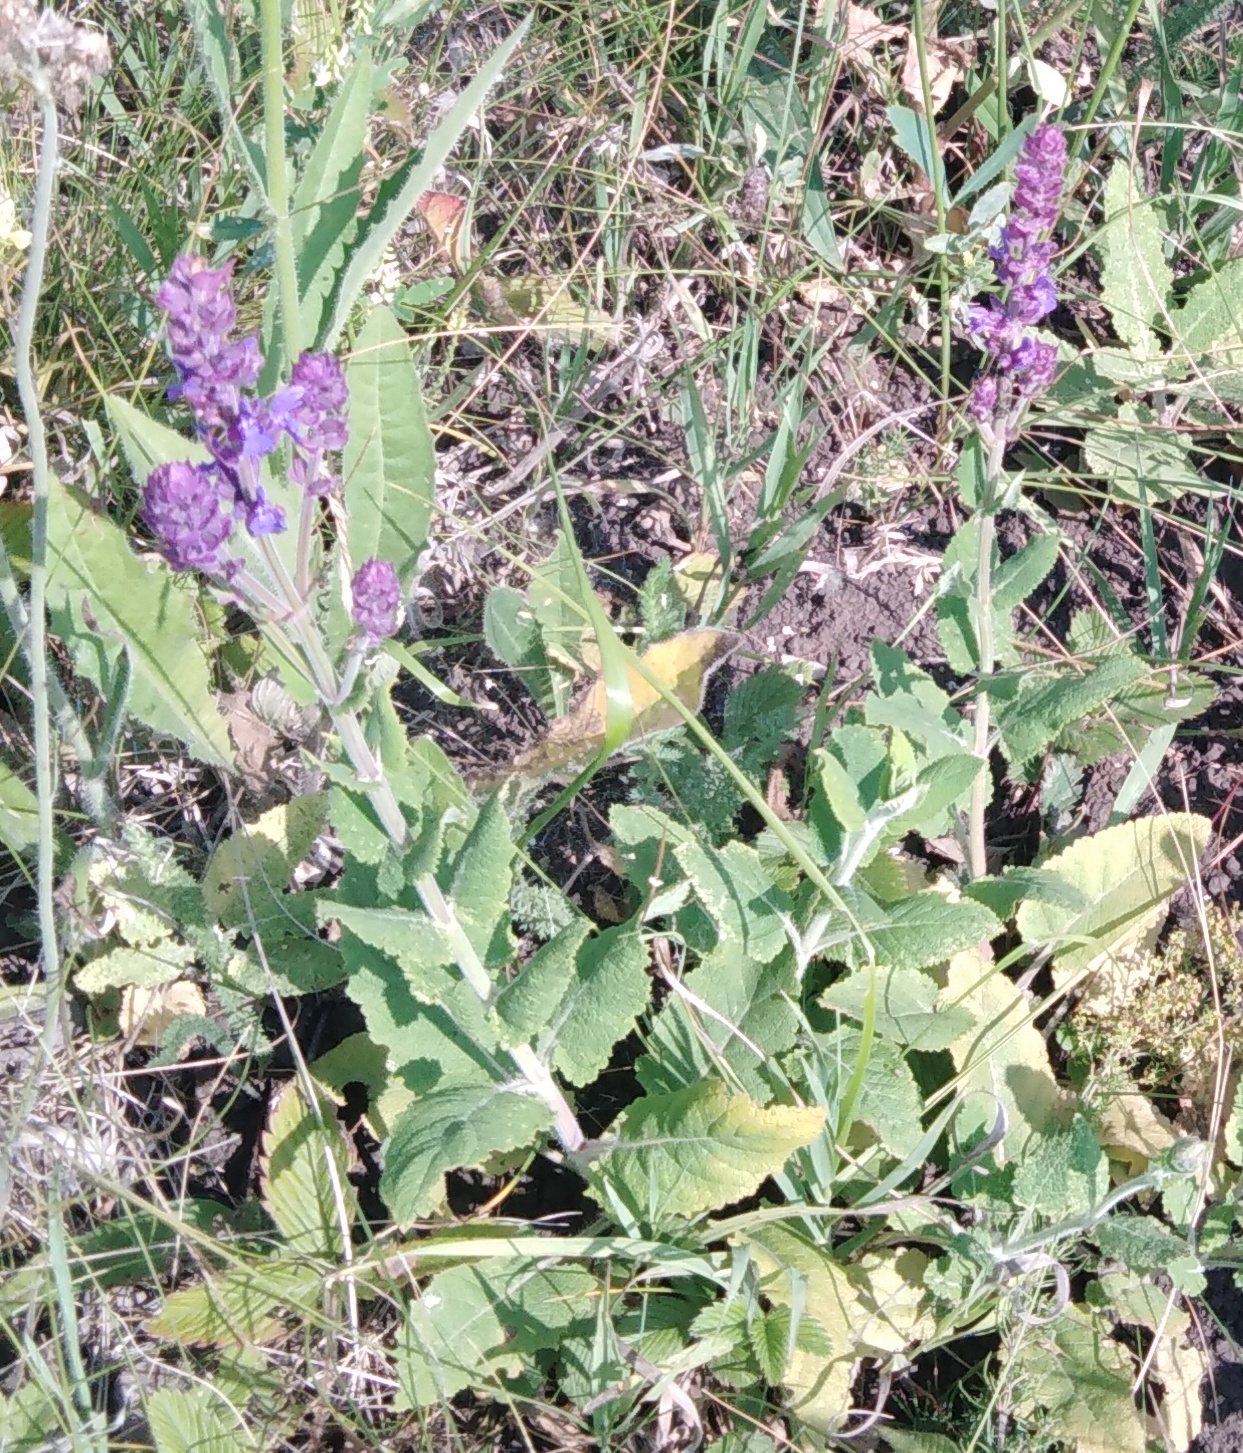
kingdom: Plantae
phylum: Tracheophyta
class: Magnoliopsida
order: Lamiales
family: Lamiaceae
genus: Salvia
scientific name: Salvia nemorosa
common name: Balkan clary
